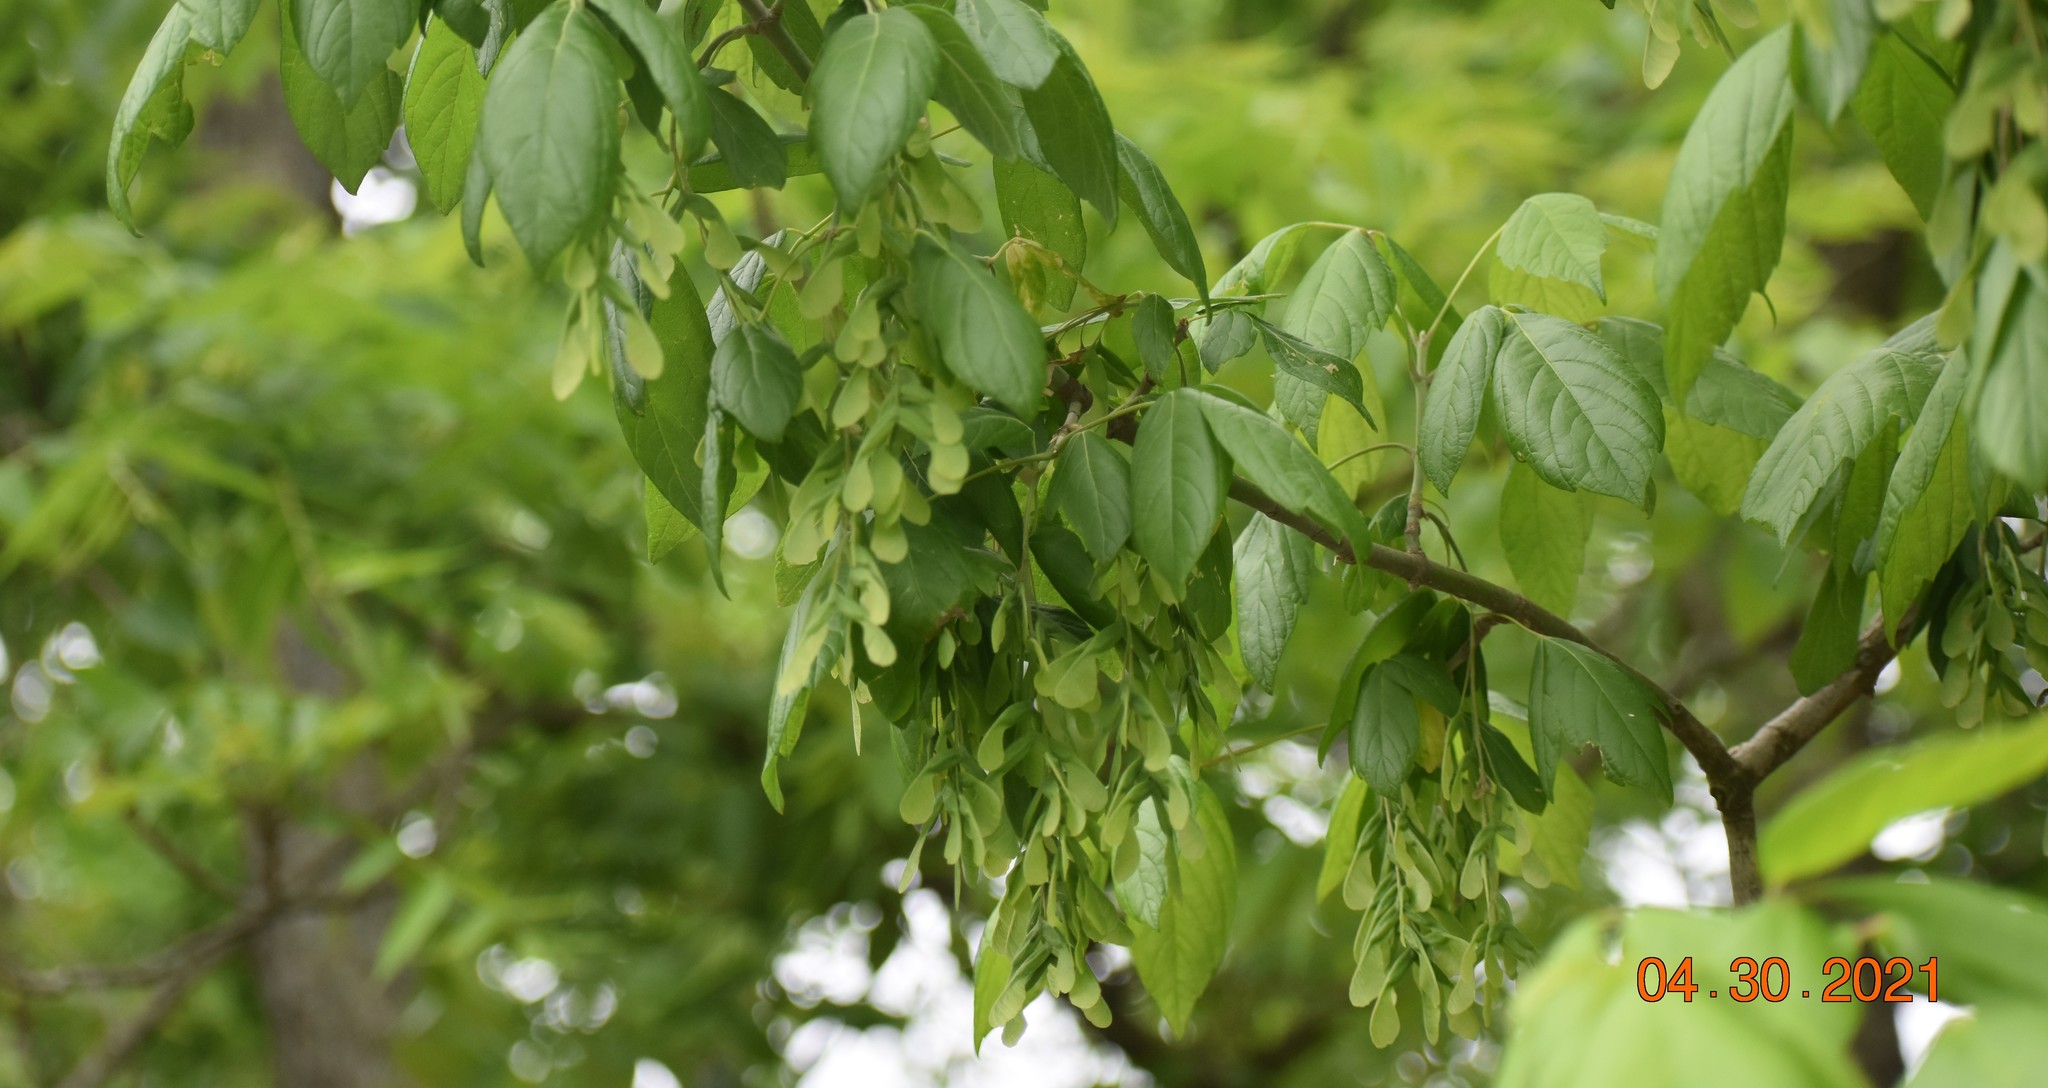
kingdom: Plantae
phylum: Tracheophyta
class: Magnoliopsida
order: Sapindales
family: Sapindaceae
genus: Acer
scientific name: Acer negundo
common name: Ashleaf maple
